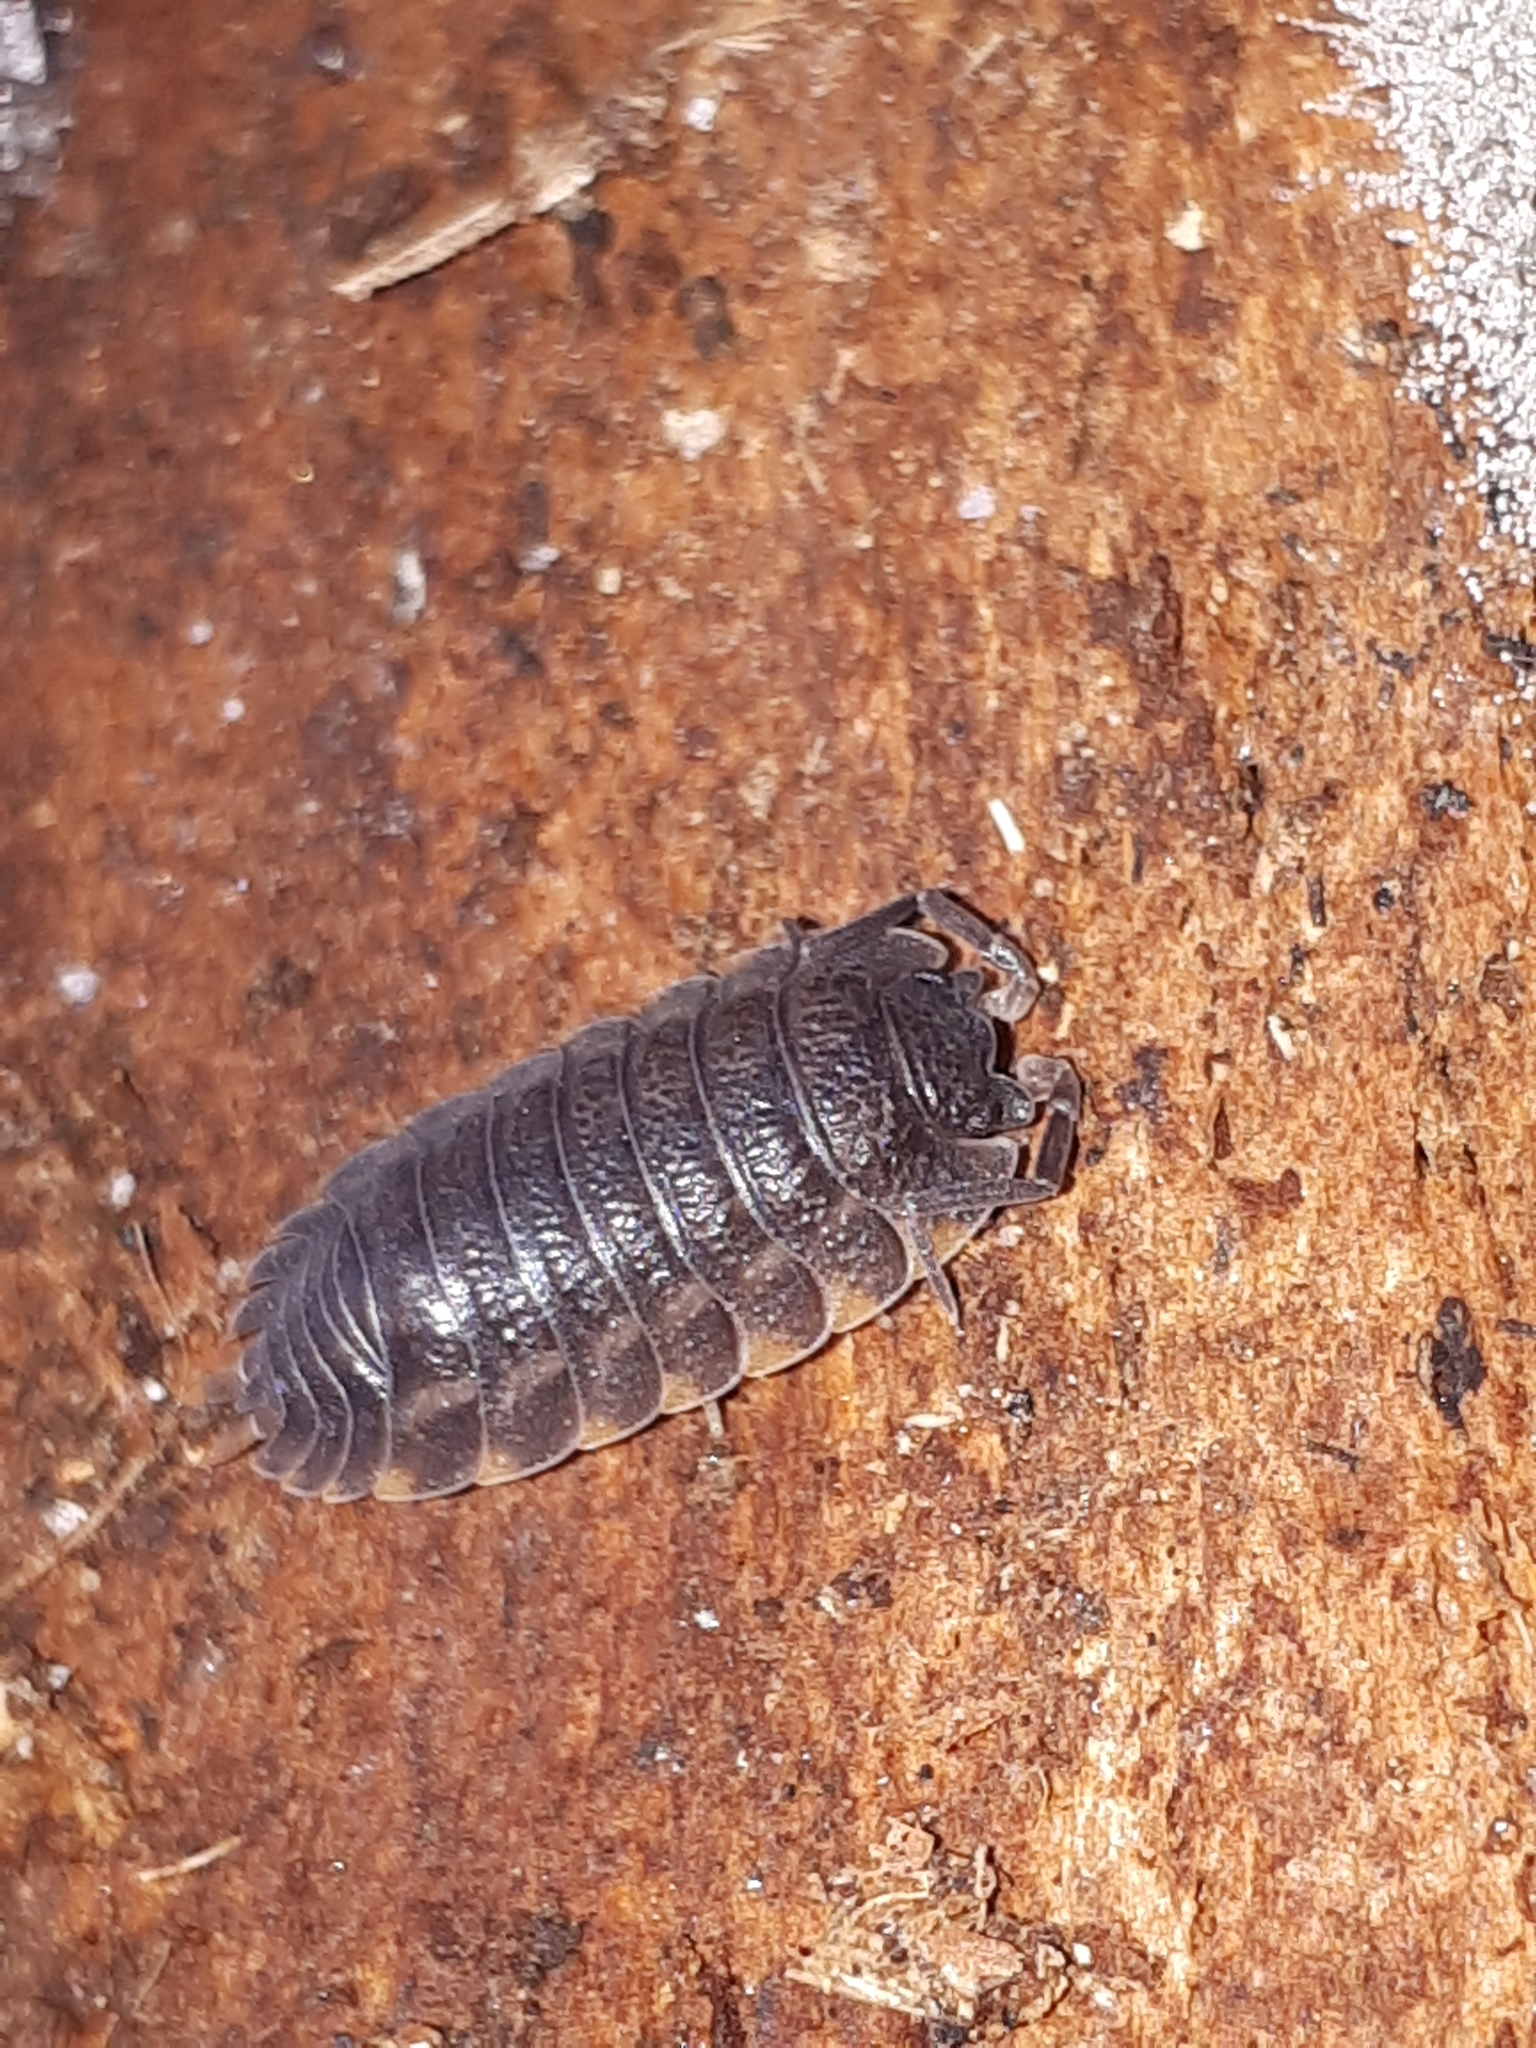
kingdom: Animalia
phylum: Arthropoda
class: Malacostraca
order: Isopoda
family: Trachelipodidae
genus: Trachelipus
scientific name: Trachelipus ratzeburgii
